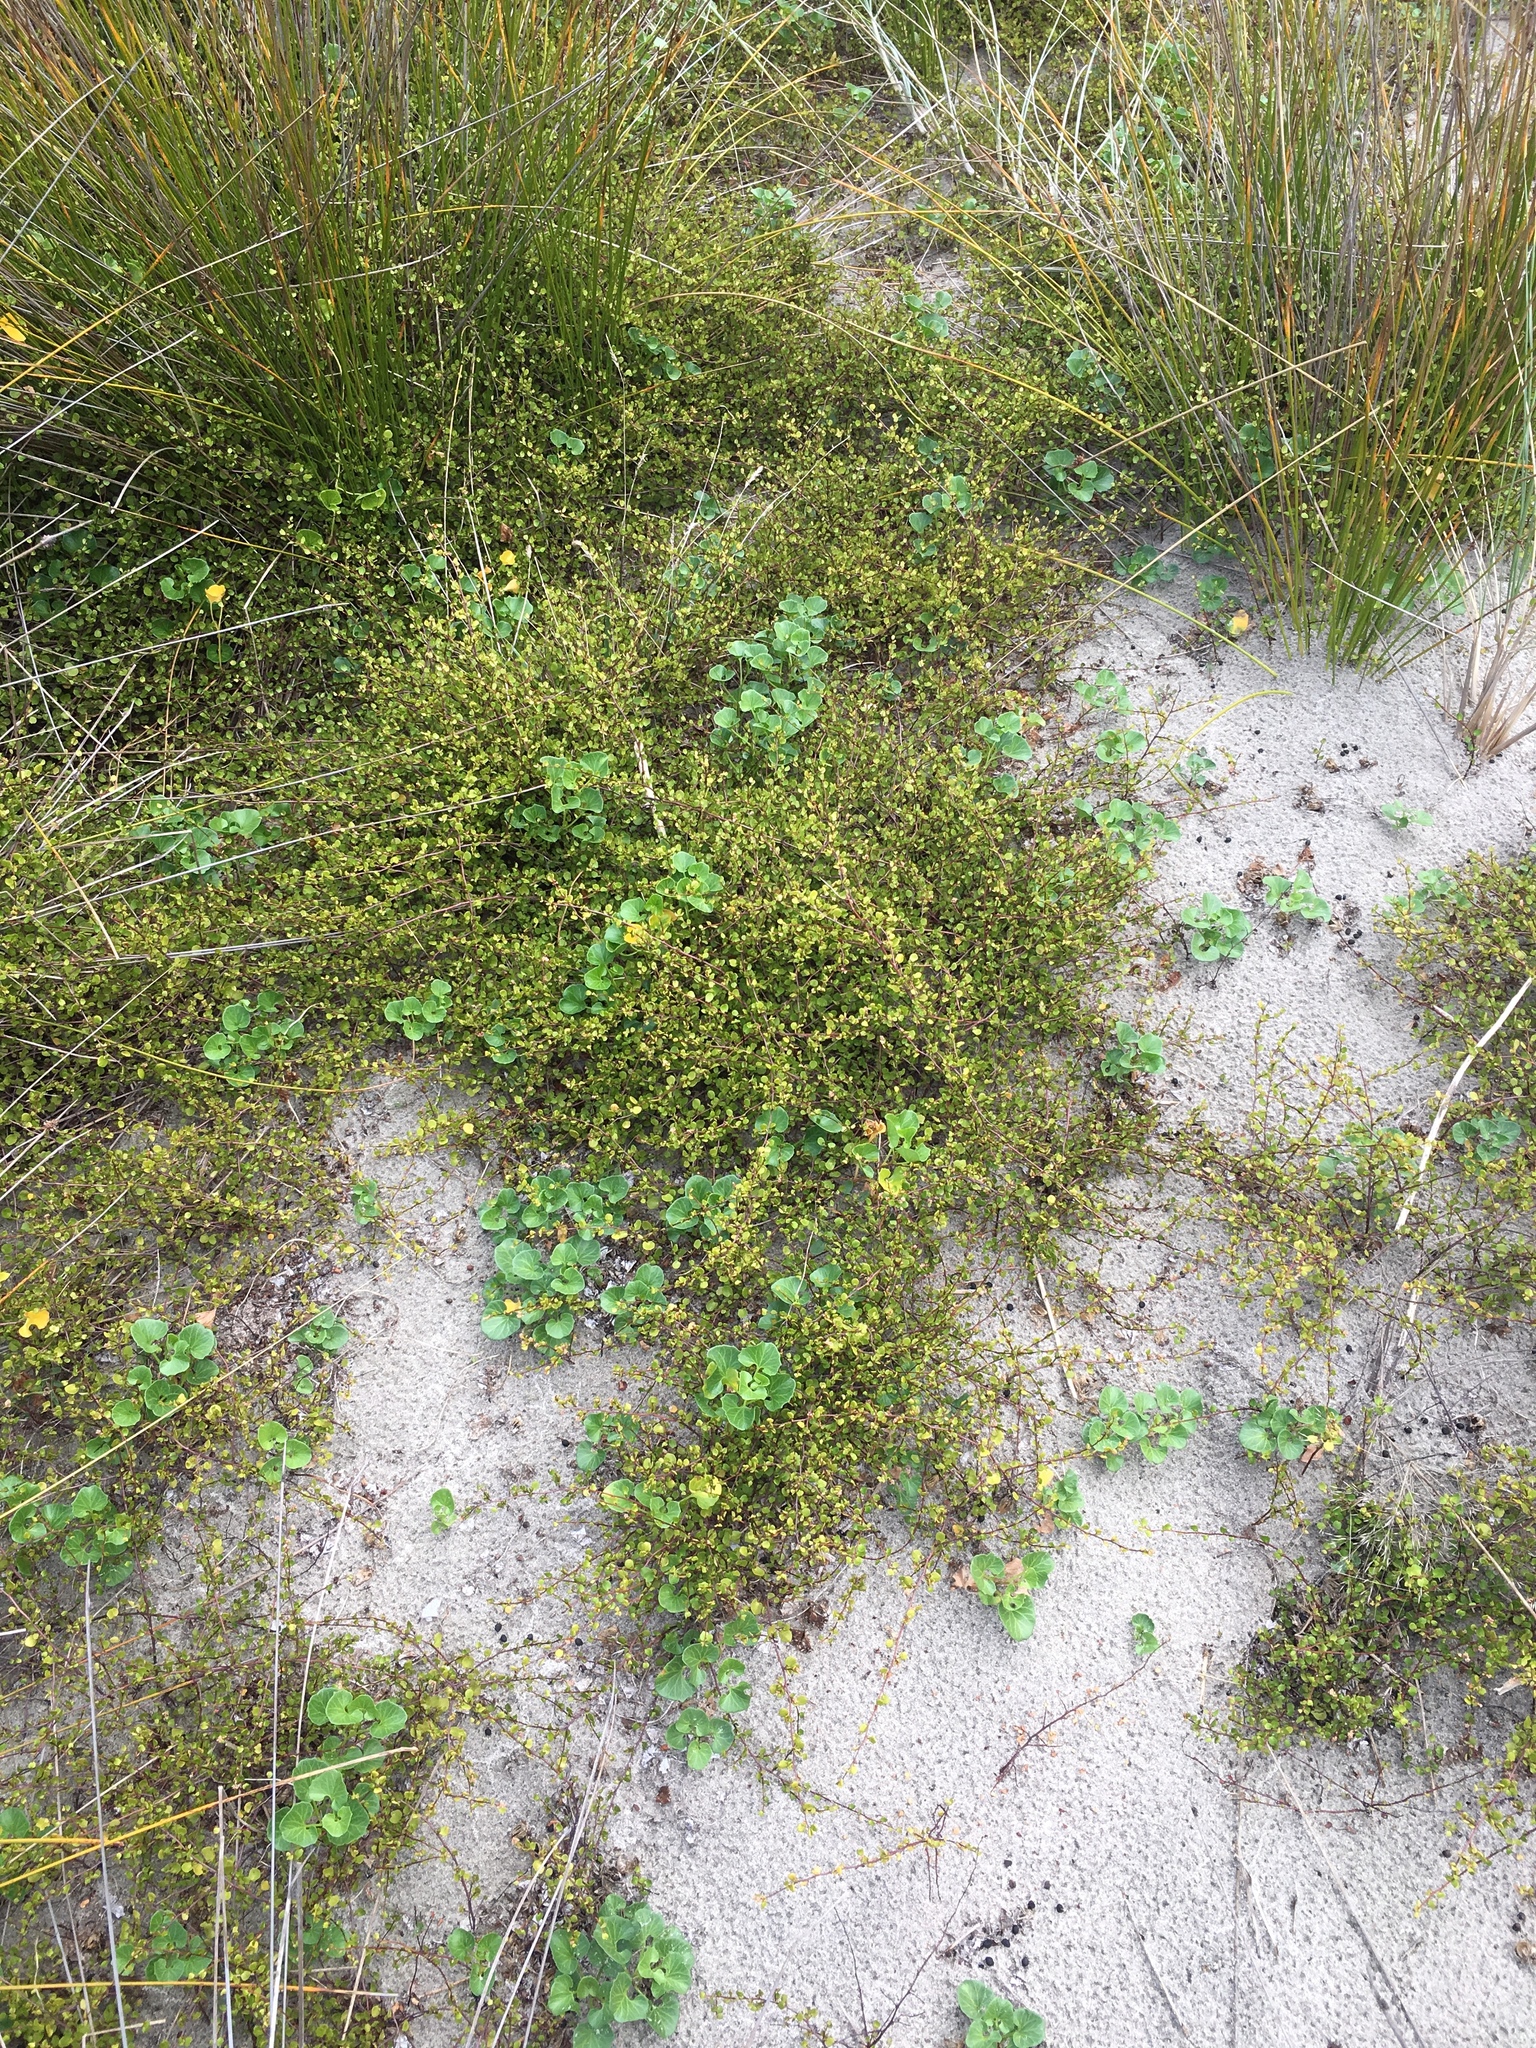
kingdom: Plantae
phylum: Tracheophyta
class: Magnoliopsida
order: Caryophyllales
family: Polygonaceae
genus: Muehlenbeckia
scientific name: Muehlenbeckia complexa
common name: Wireplant
